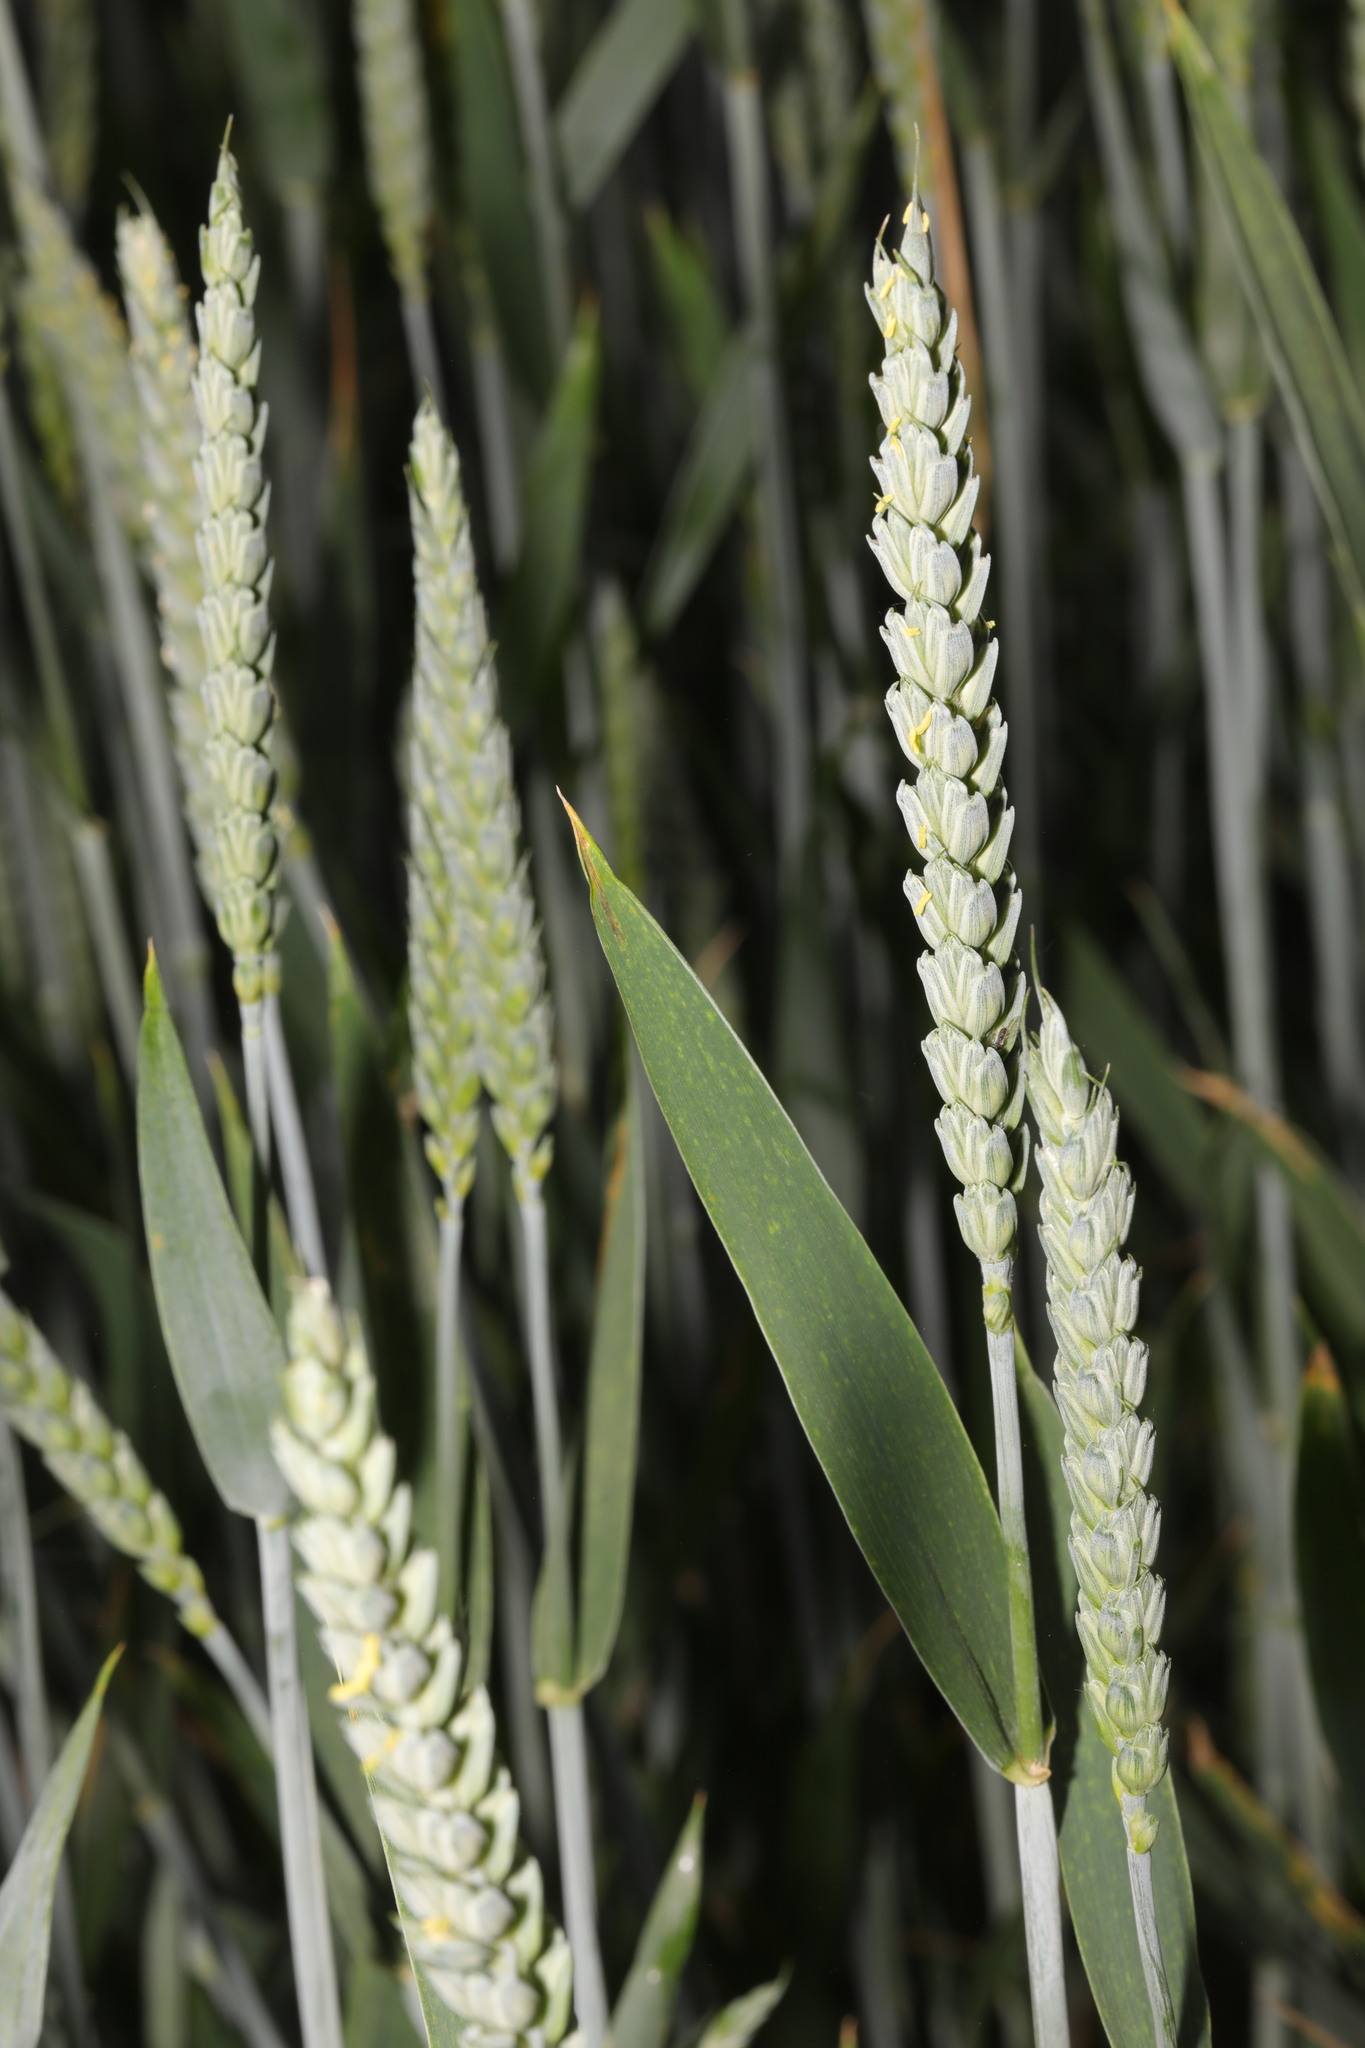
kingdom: Plantae
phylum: Tracheophyta
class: Liliopsida
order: Poales
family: Poaceae
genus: Triticum
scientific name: Triticum aestivum
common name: Common wheat
